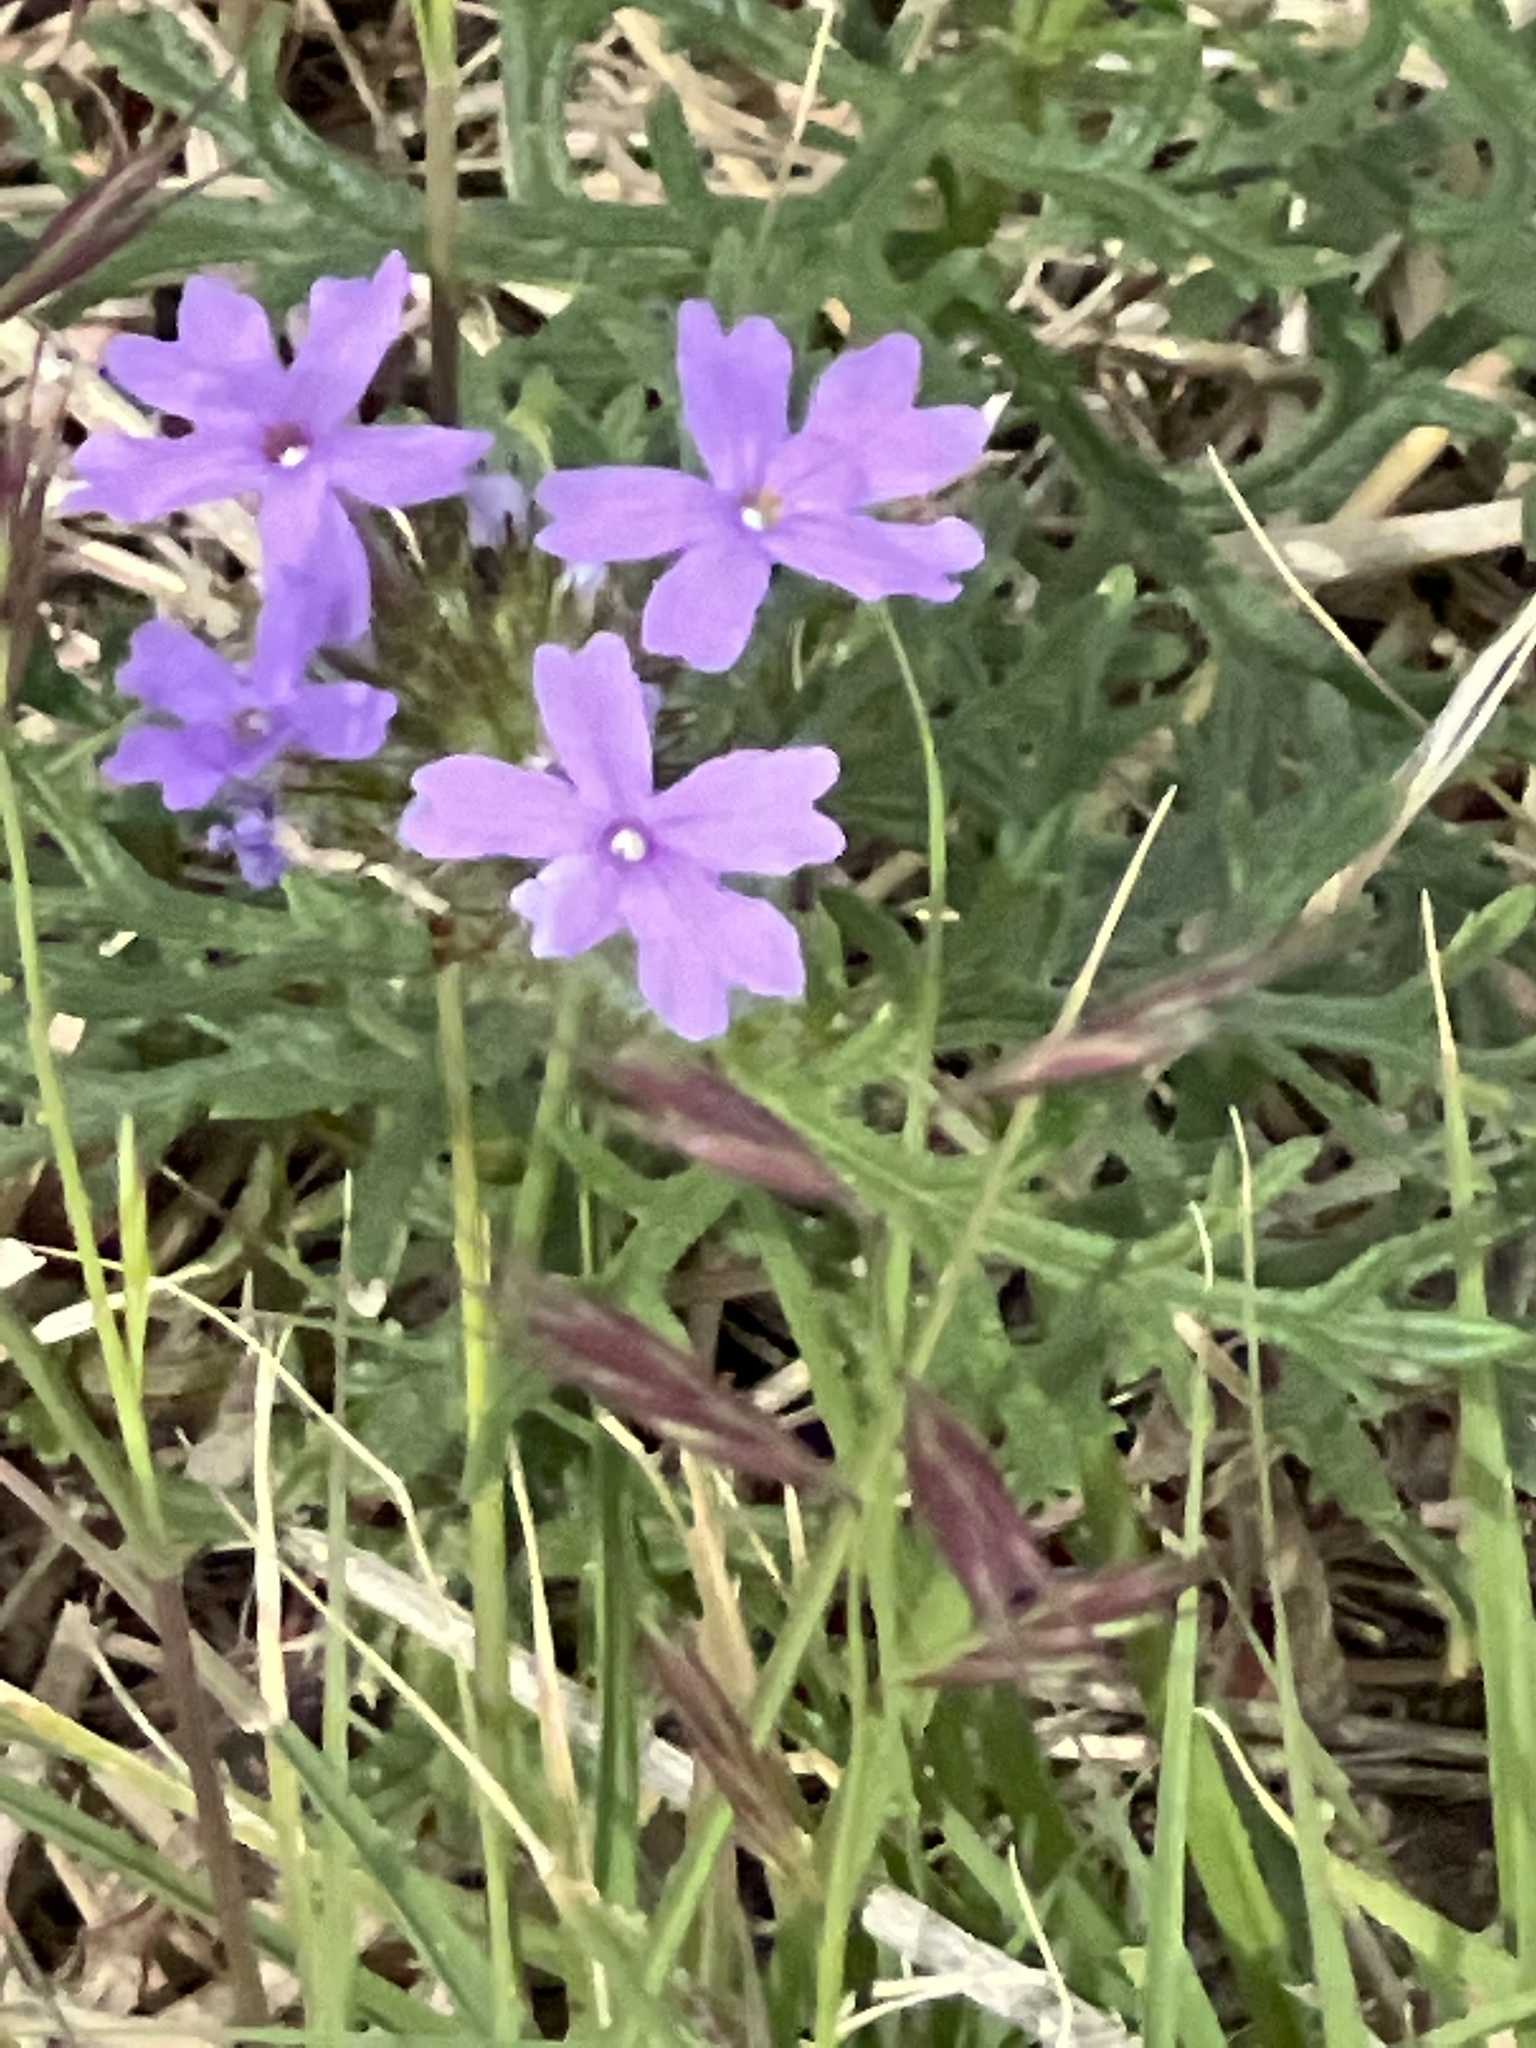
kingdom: Plantae
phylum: Tracheophyta
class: Magnoliopsida
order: Lamiales
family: Verbenaceae
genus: Verbena
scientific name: Verbena bipinnatifida
